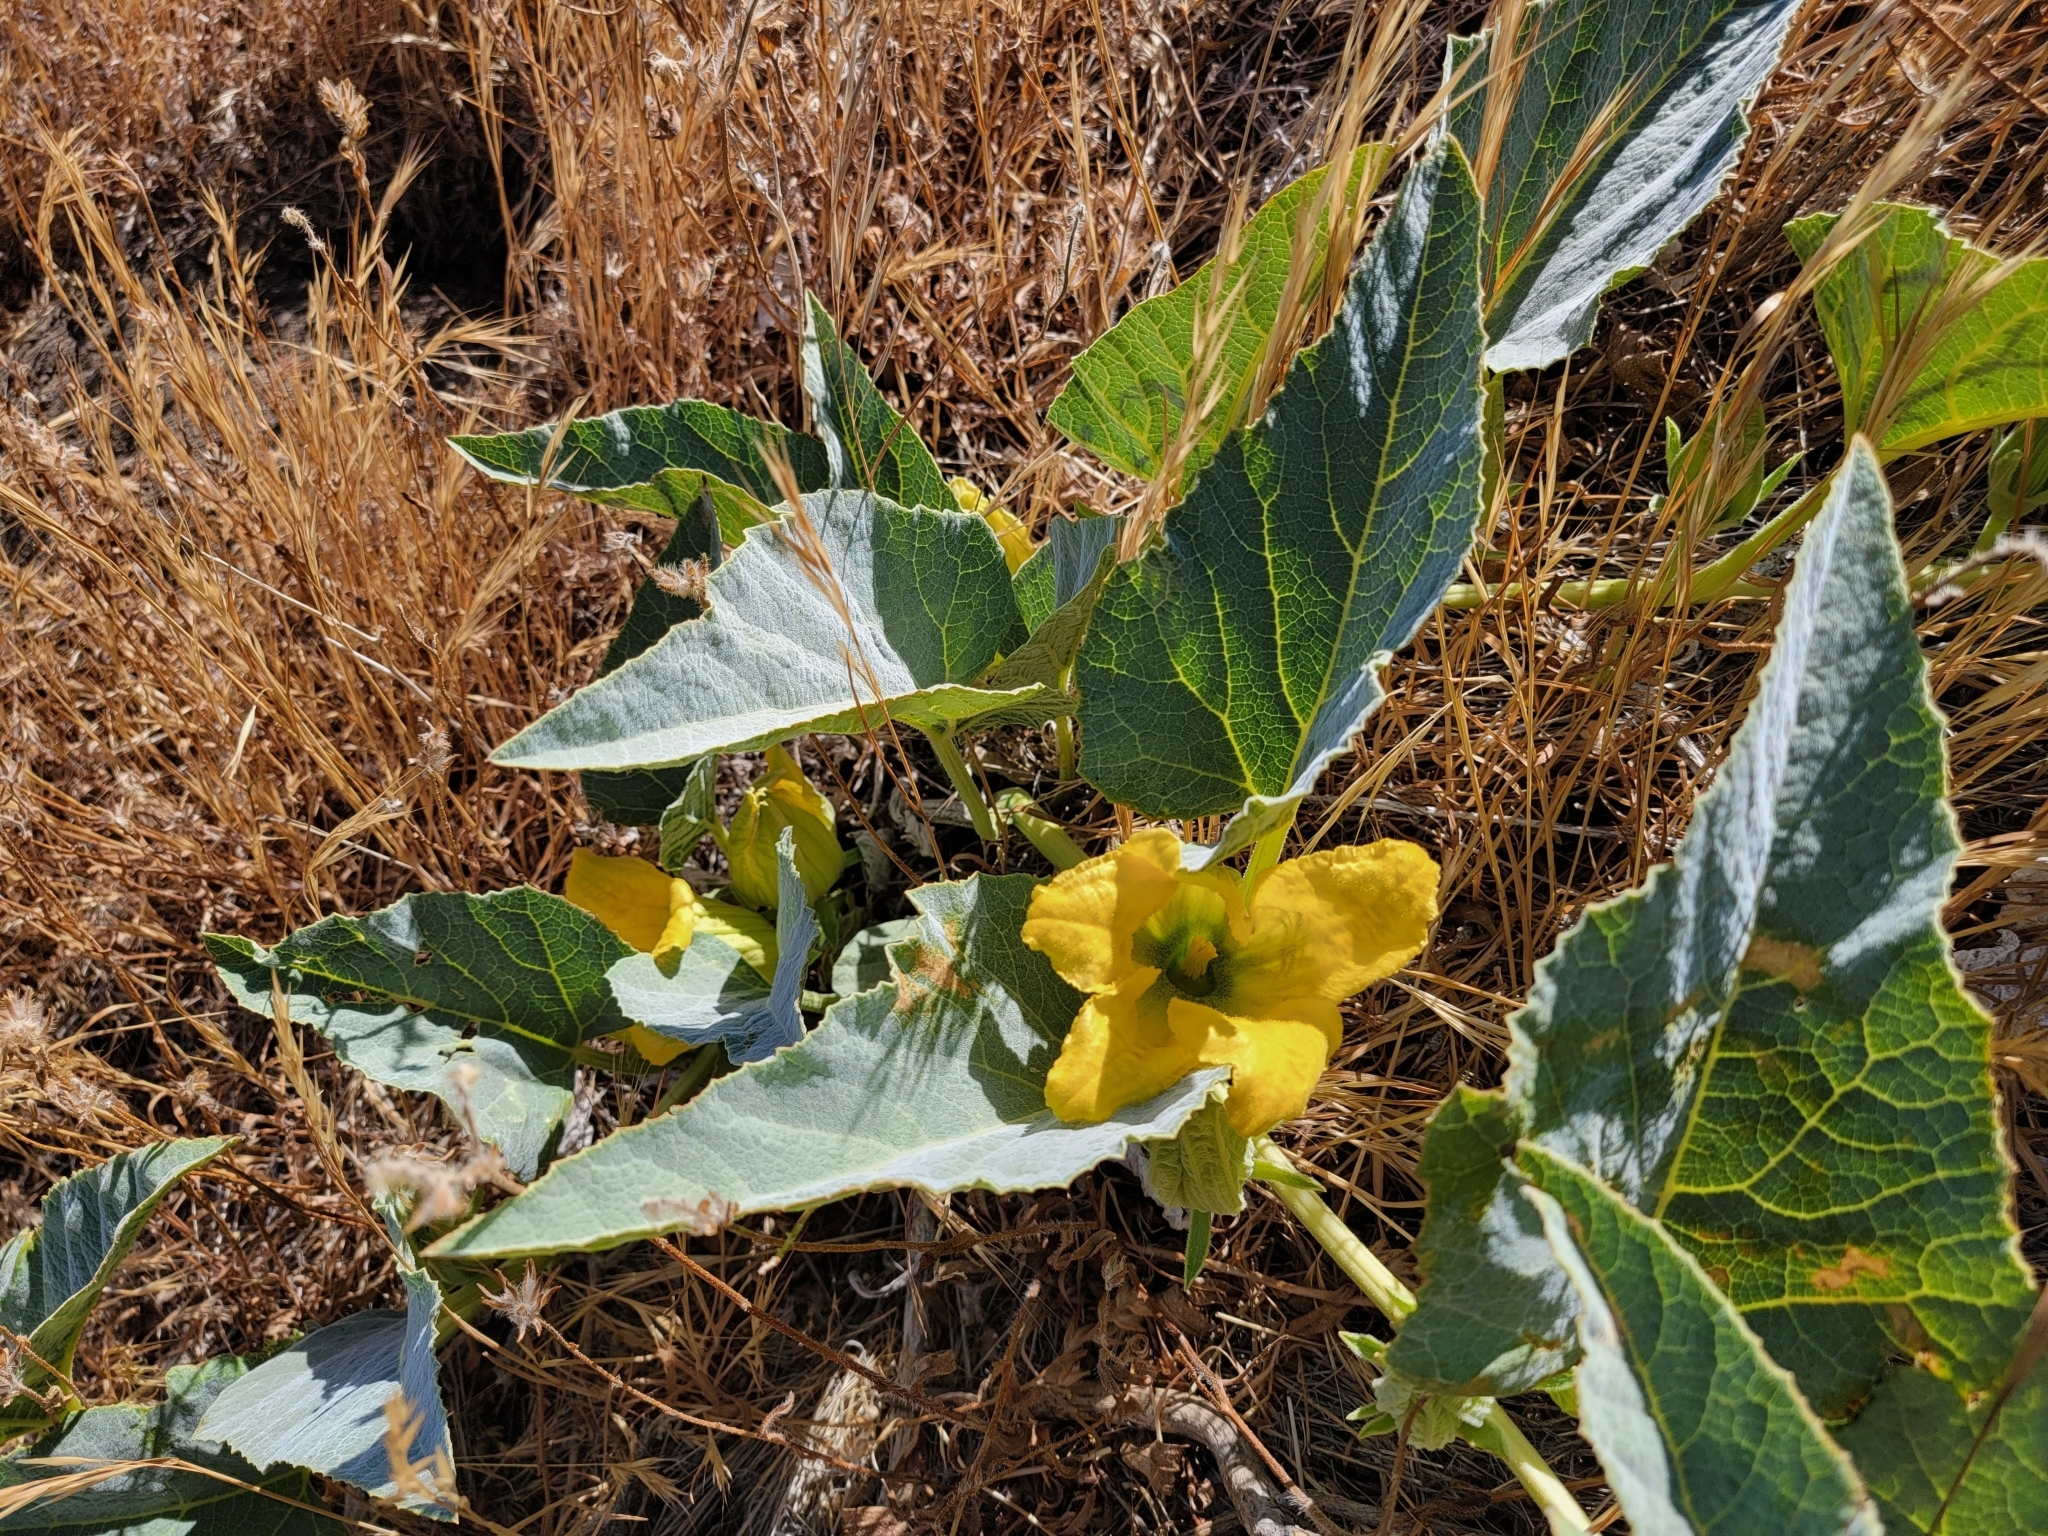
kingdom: Plantae
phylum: Tracheophyta
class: Magnoliopsida
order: Cucurbitales
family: Cucurbitaceae
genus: Cucurbita
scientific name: Cucurbita foetidissima
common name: Buffalo gourd
